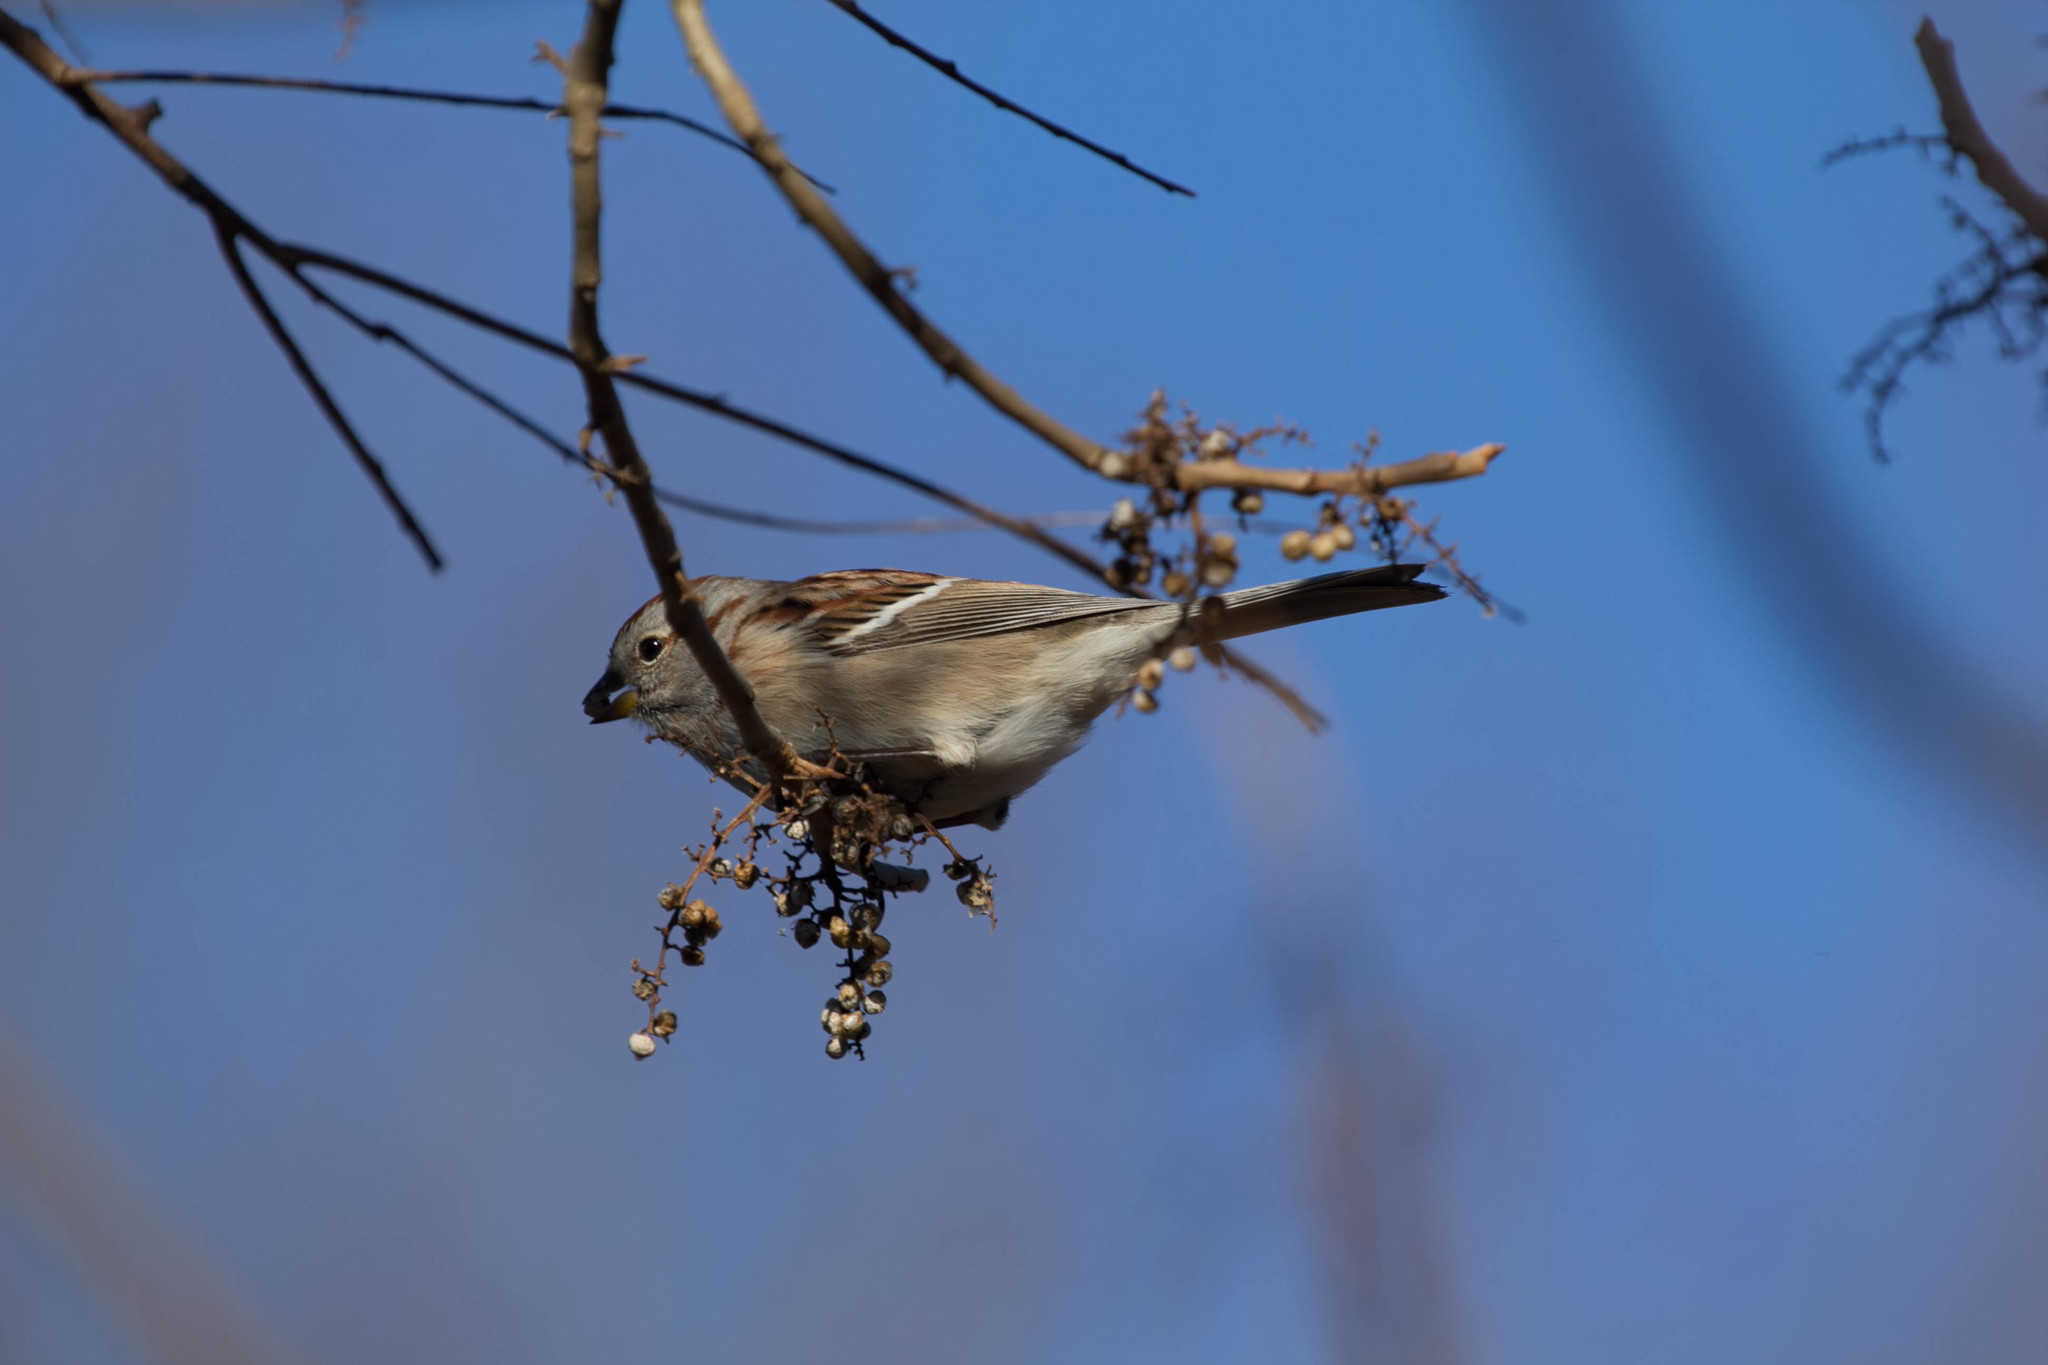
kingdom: Animalia
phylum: Chordata
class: Aves
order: Passeriformes
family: Passerellidae
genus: Spizelloides
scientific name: Spizelloides arborea
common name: American tree sparrow
